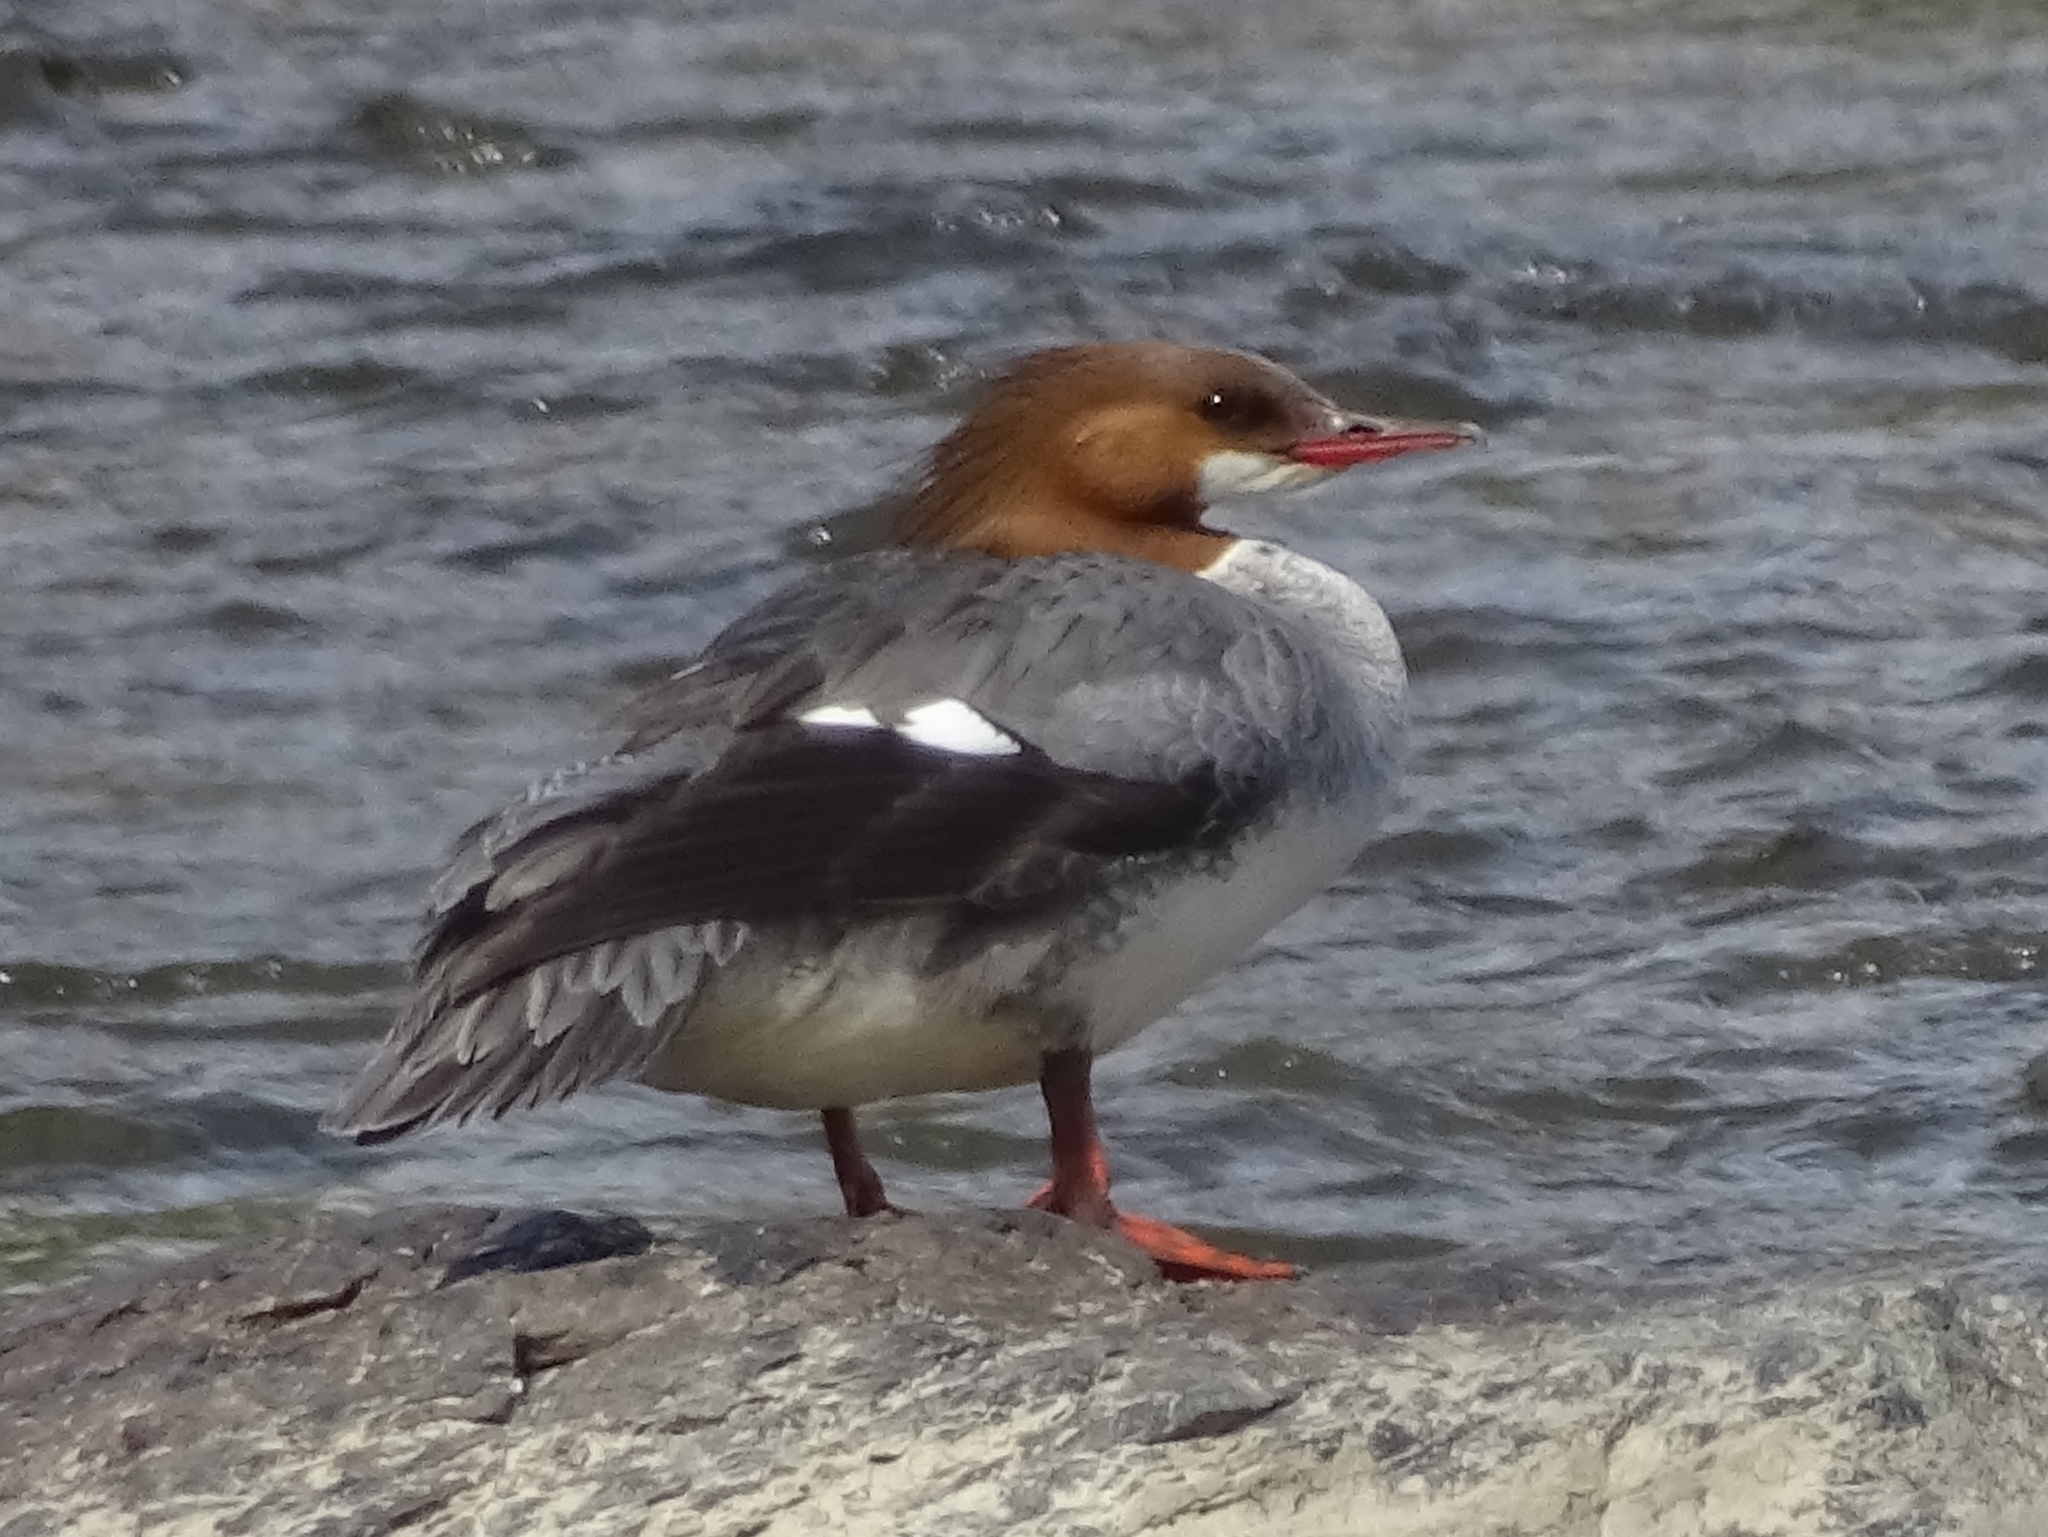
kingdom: Animalia
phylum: Chordata
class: Aves
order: Anseriformes
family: Anatidae
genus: Mergus
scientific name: Mergus merganser
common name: Common merganser
